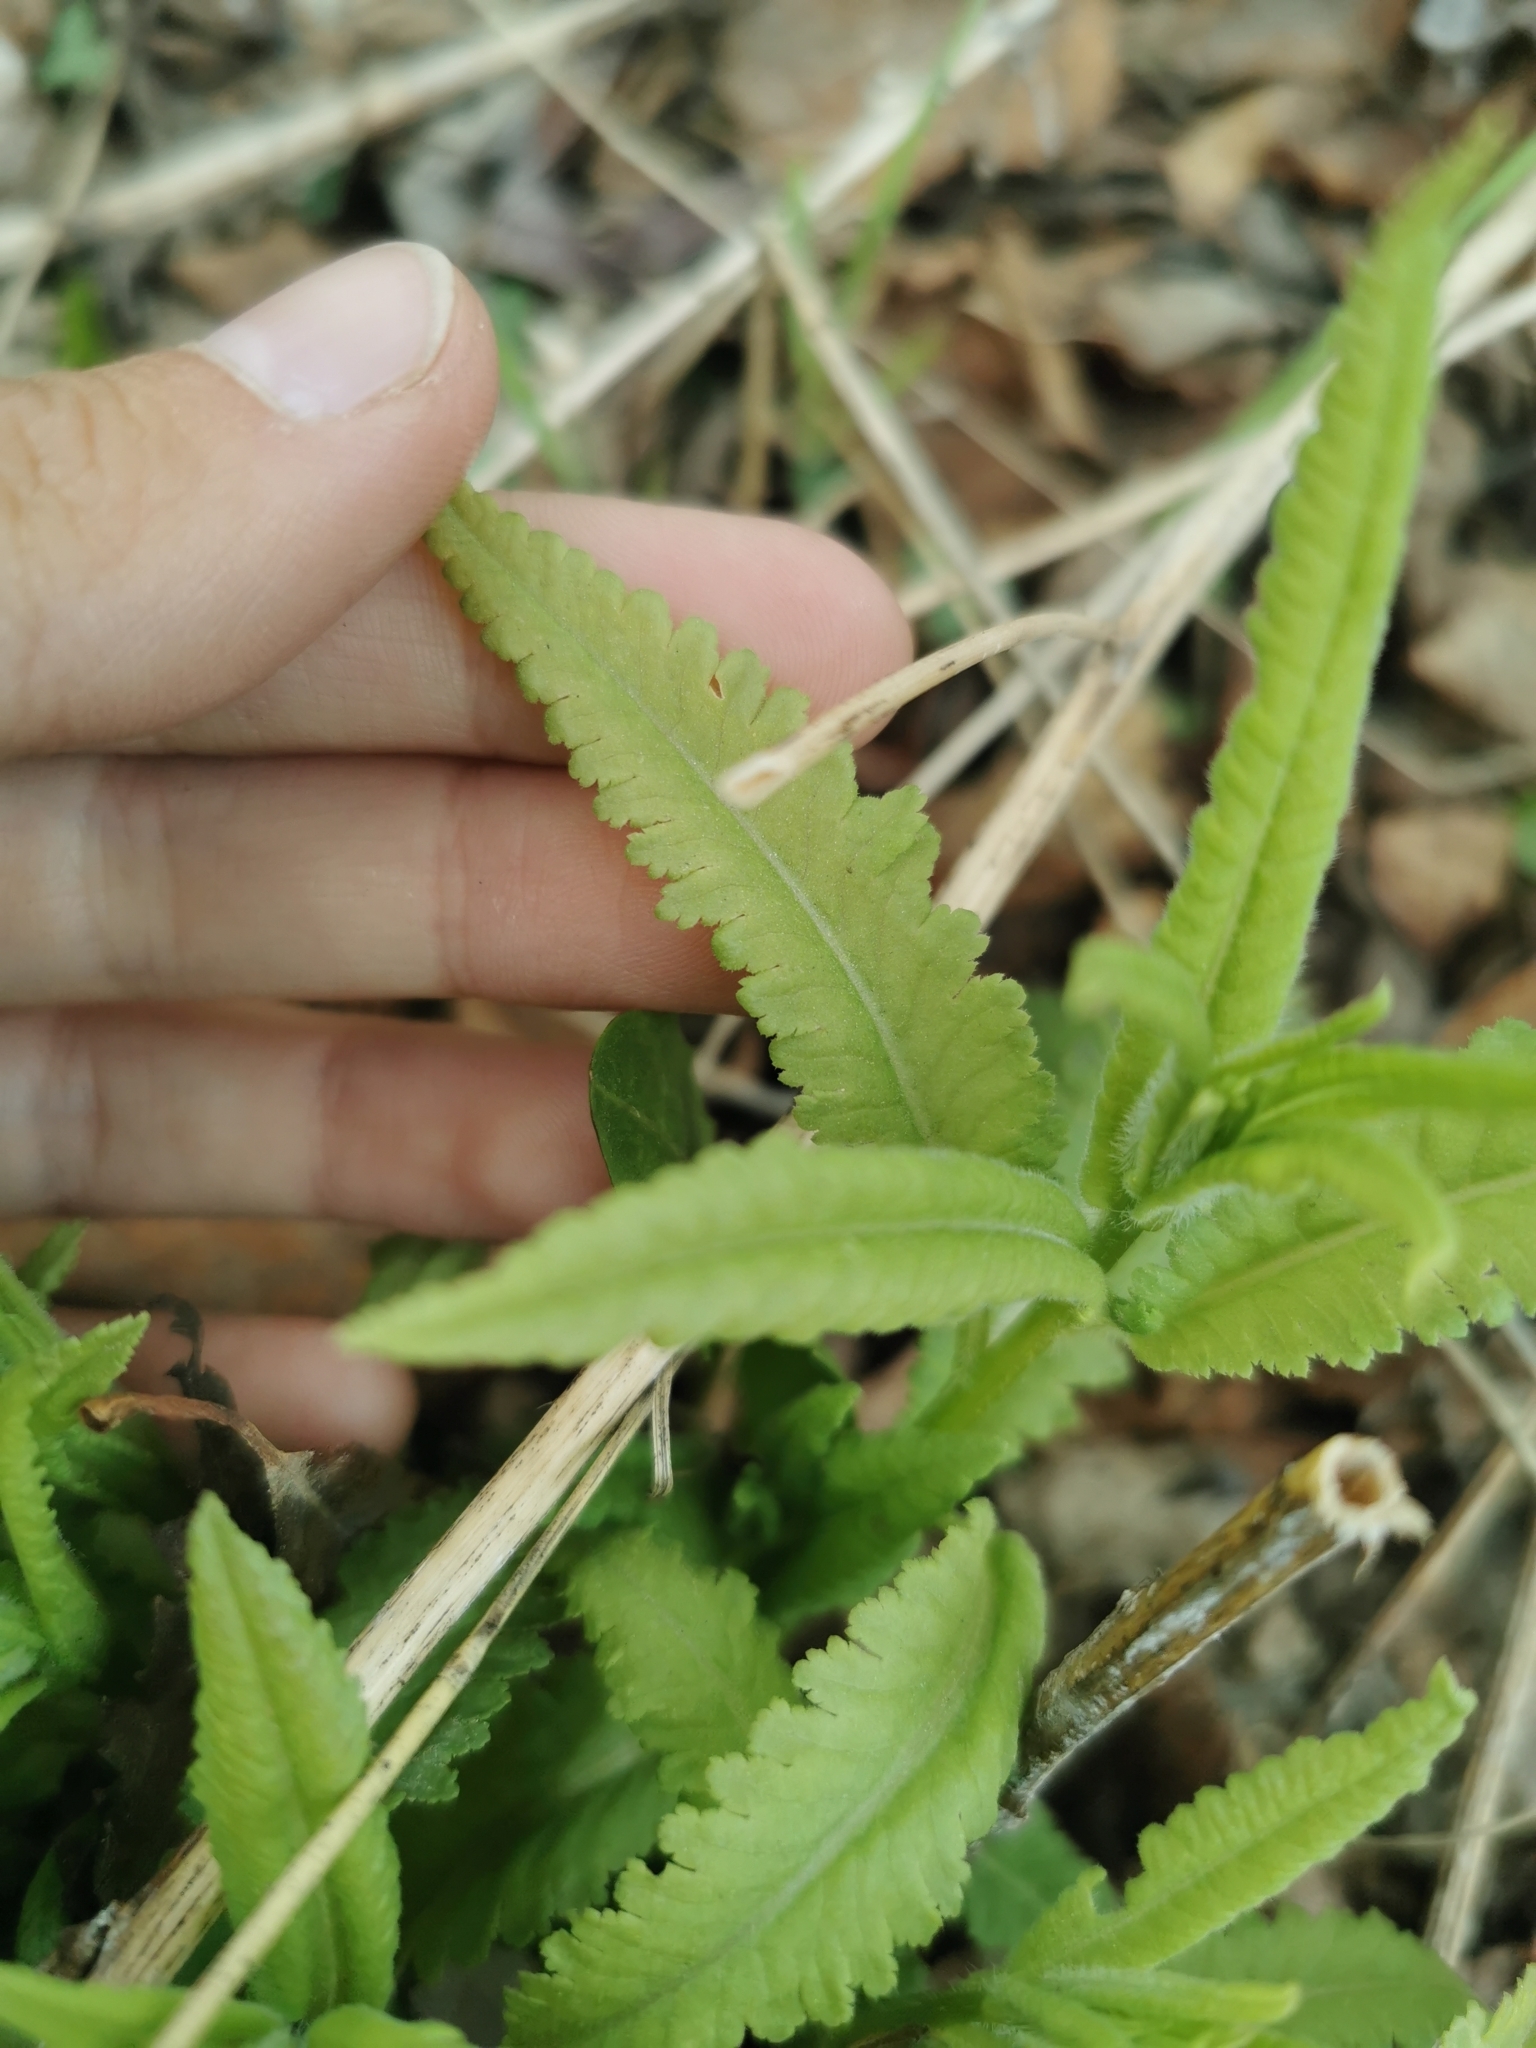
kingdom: Plantae
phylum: Tracheophyta
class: Magnoliopsida
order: Lamiales
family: Orobanchaceae
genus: Pedicularis
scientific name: Pedicularis resupinata
